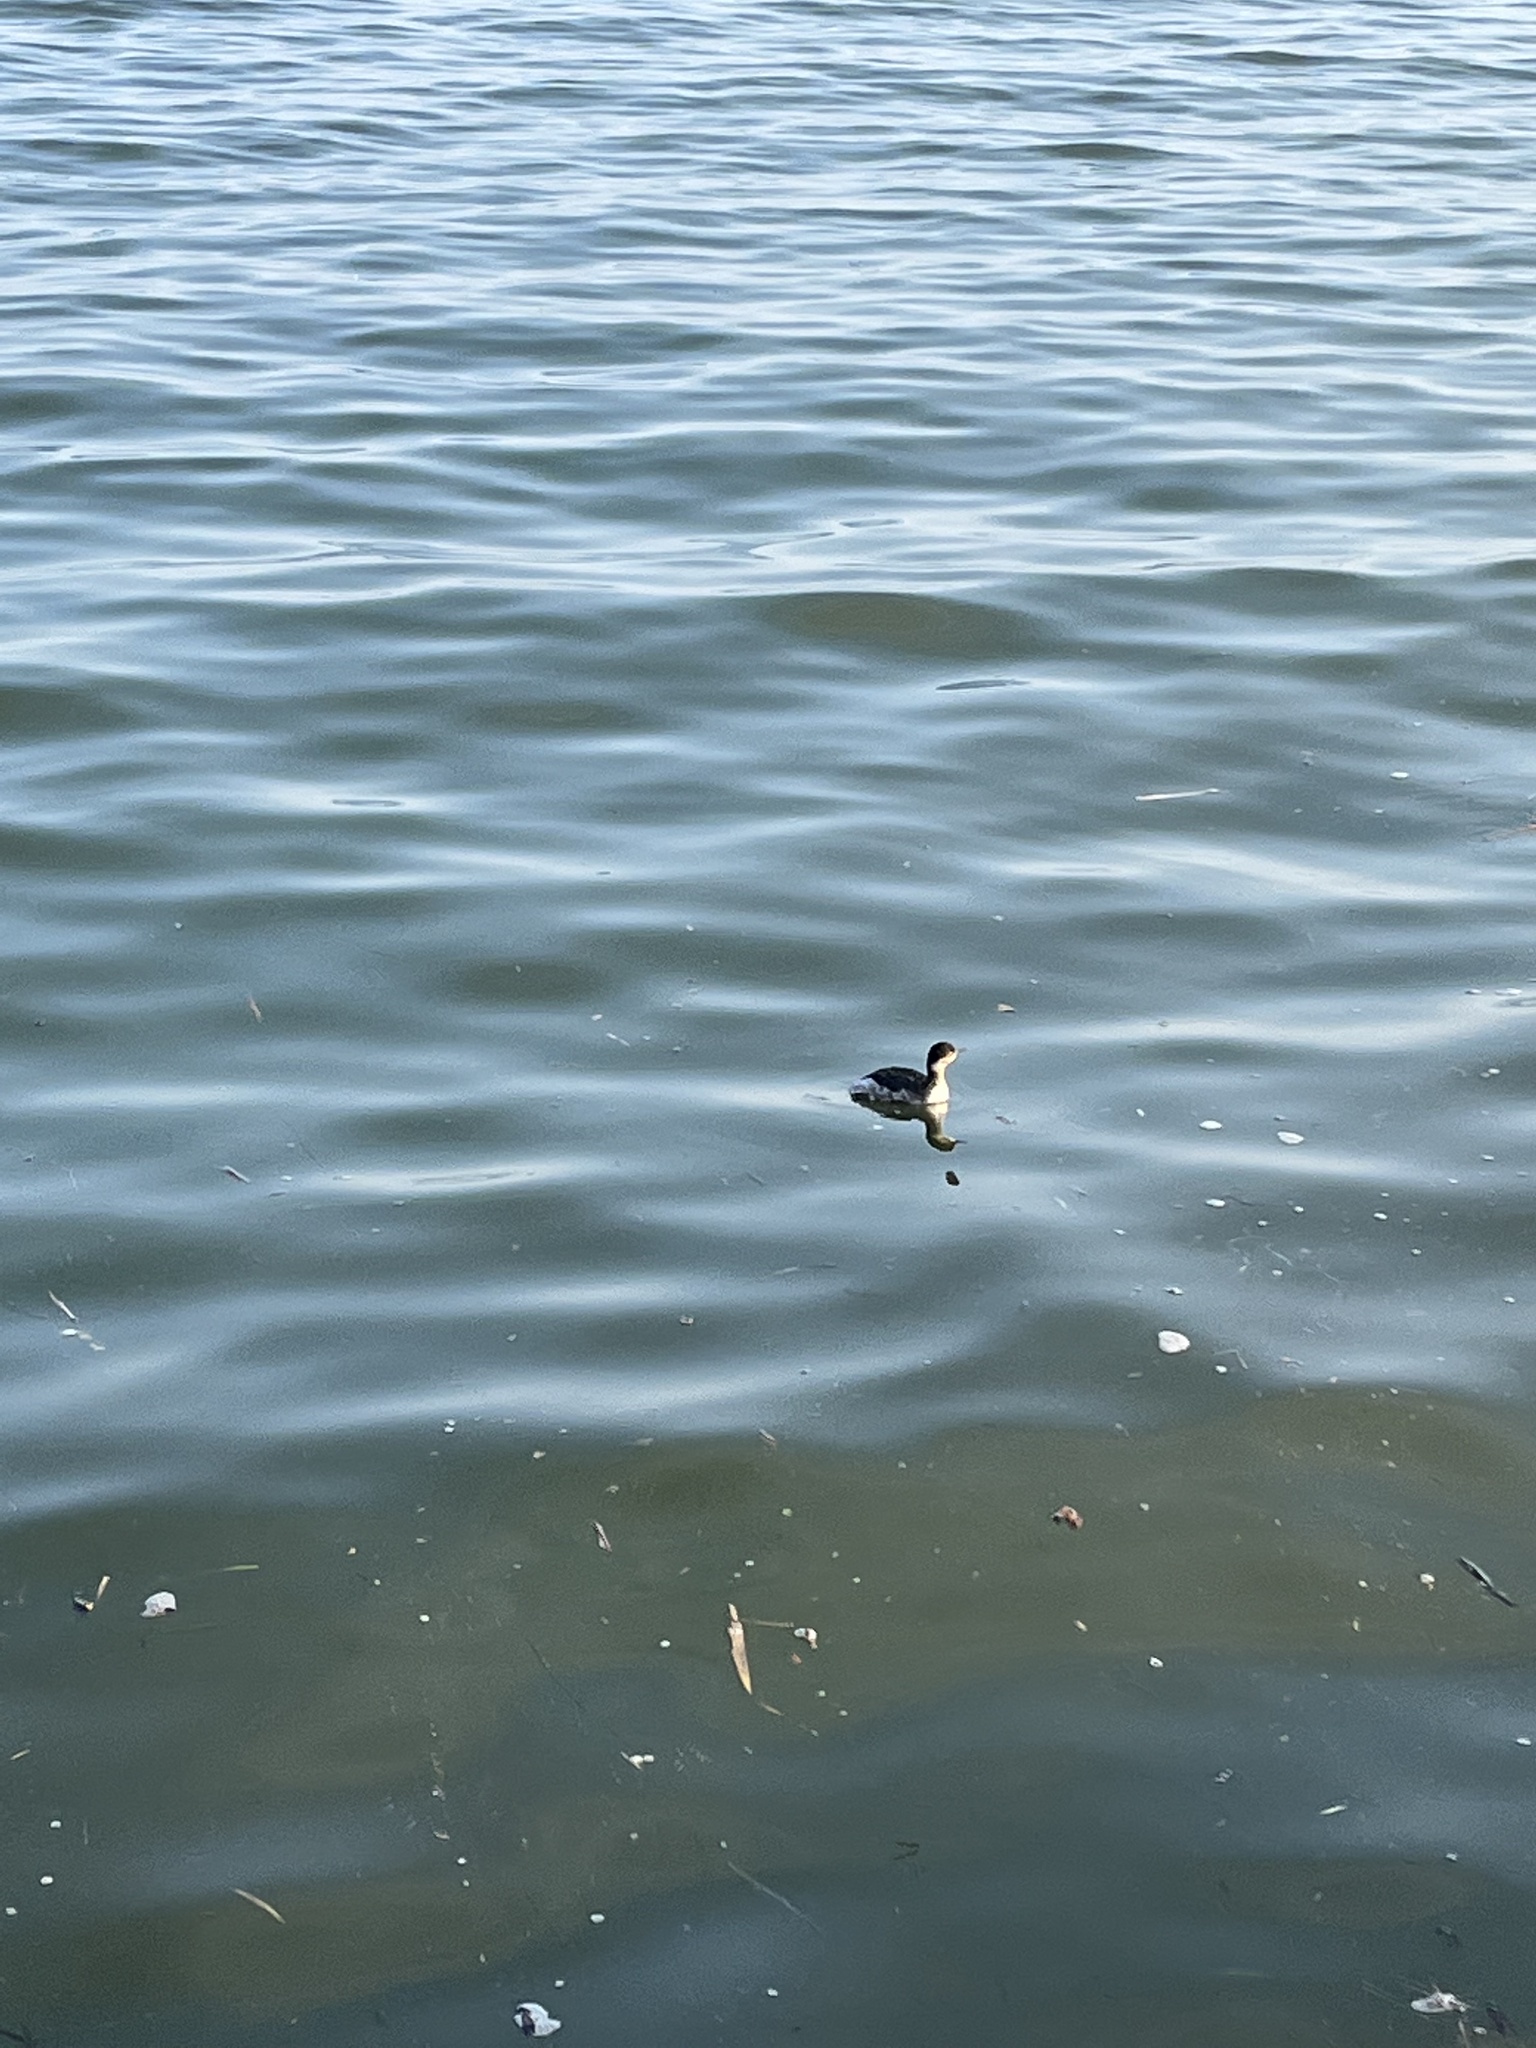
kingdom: Animalia
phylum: Chordata
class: Aves
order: Podicipediformes
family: Podicipedidae
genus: Podiceps
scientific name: Podiceps nigricollis
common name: Black-necked grebe
